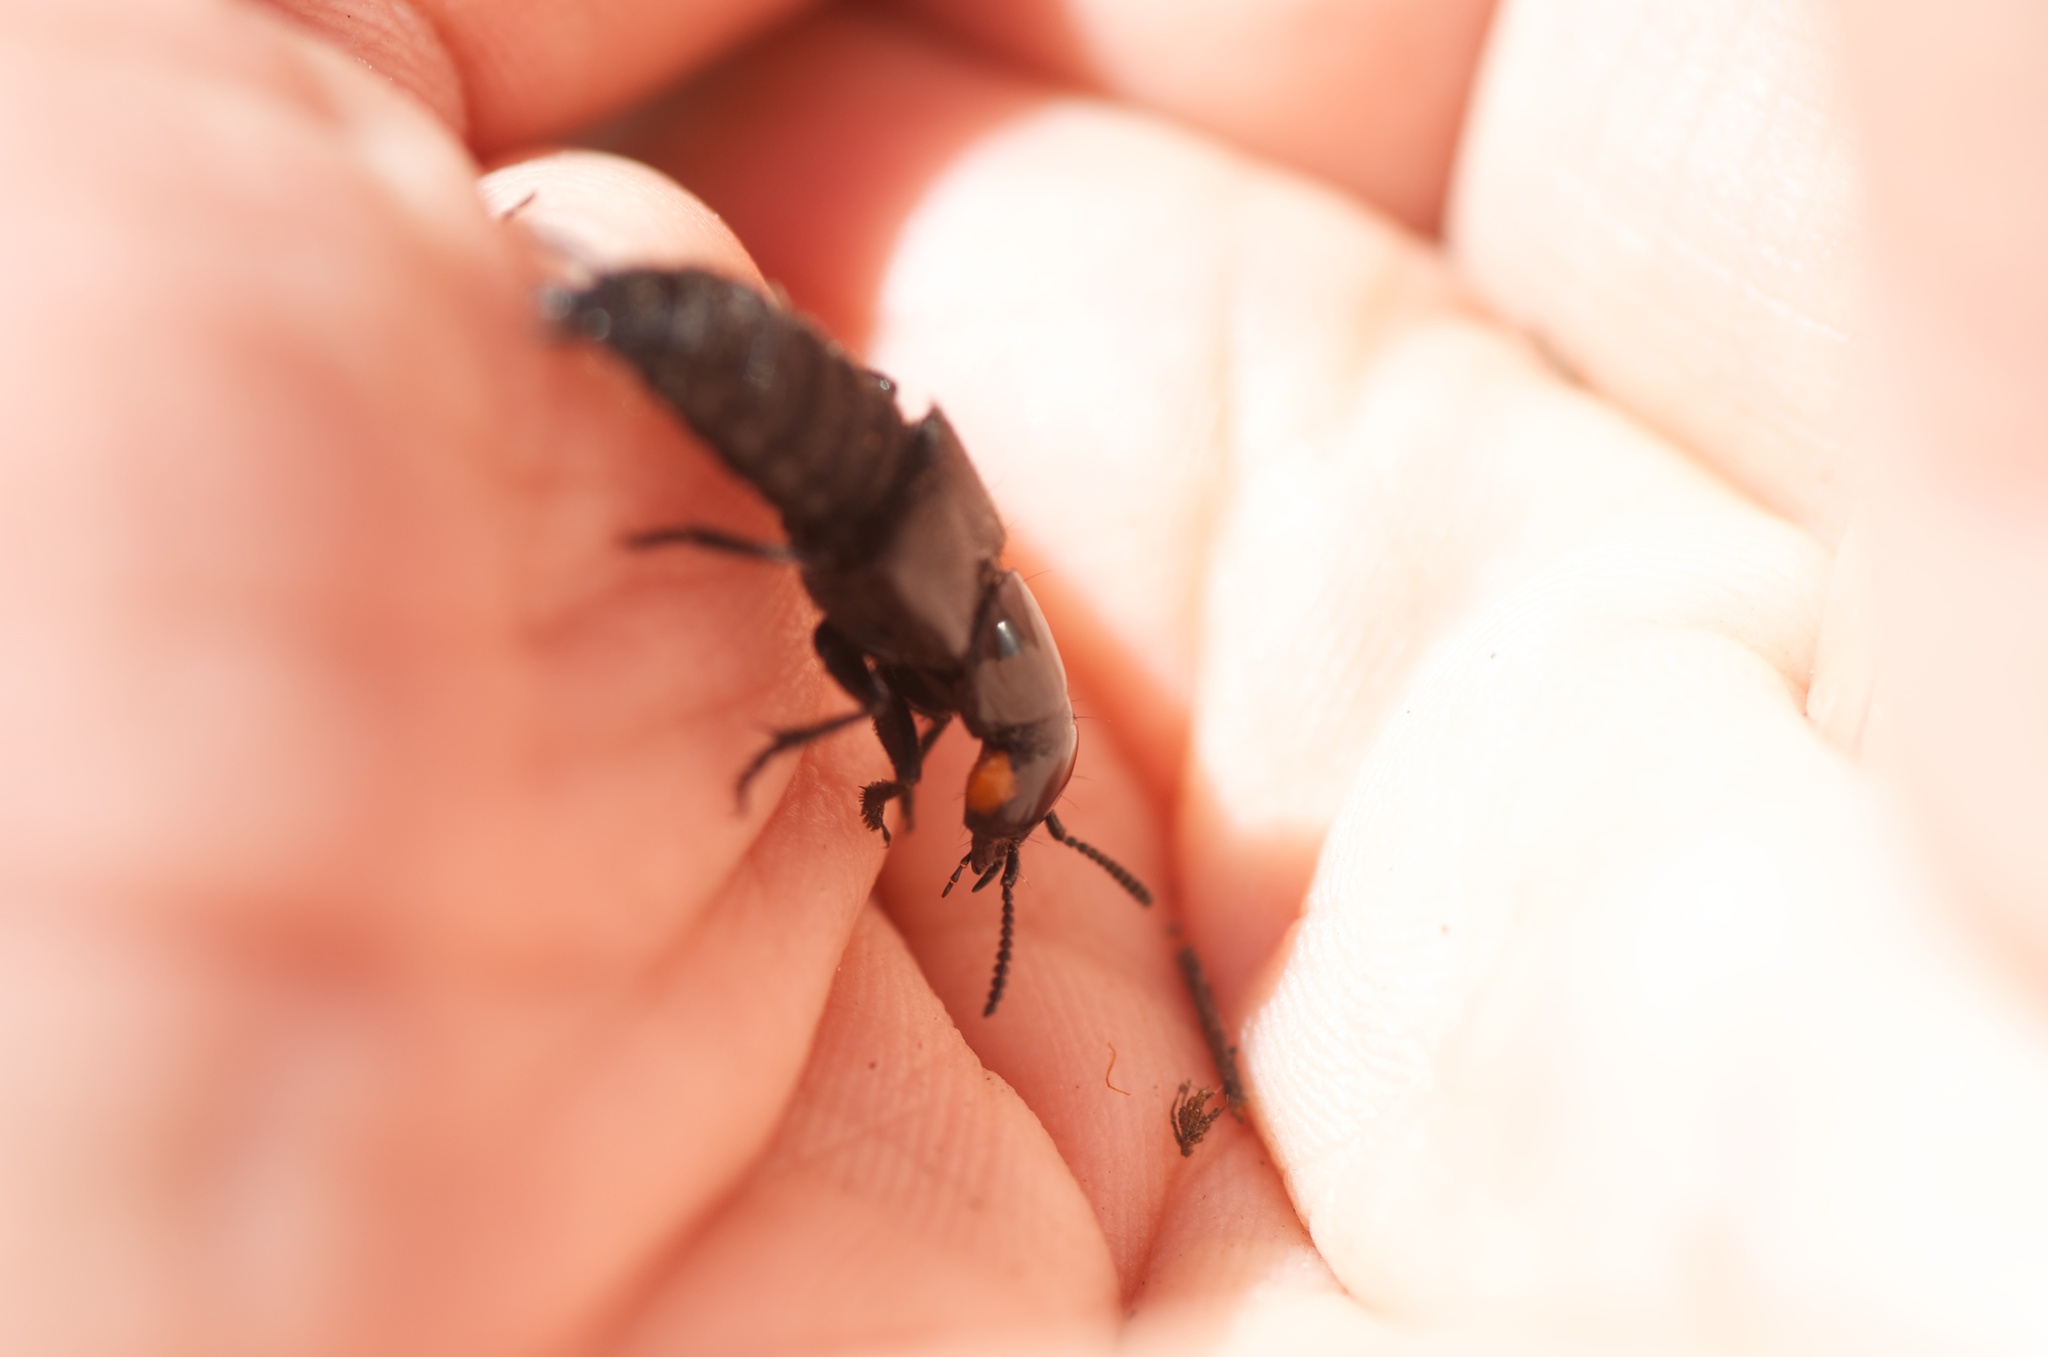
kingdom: Animalia
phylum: Arthropoda
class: Insecta
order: Coleoptera
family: Staphylinidae
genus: Creophilus
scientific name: Creophilus oculatus
